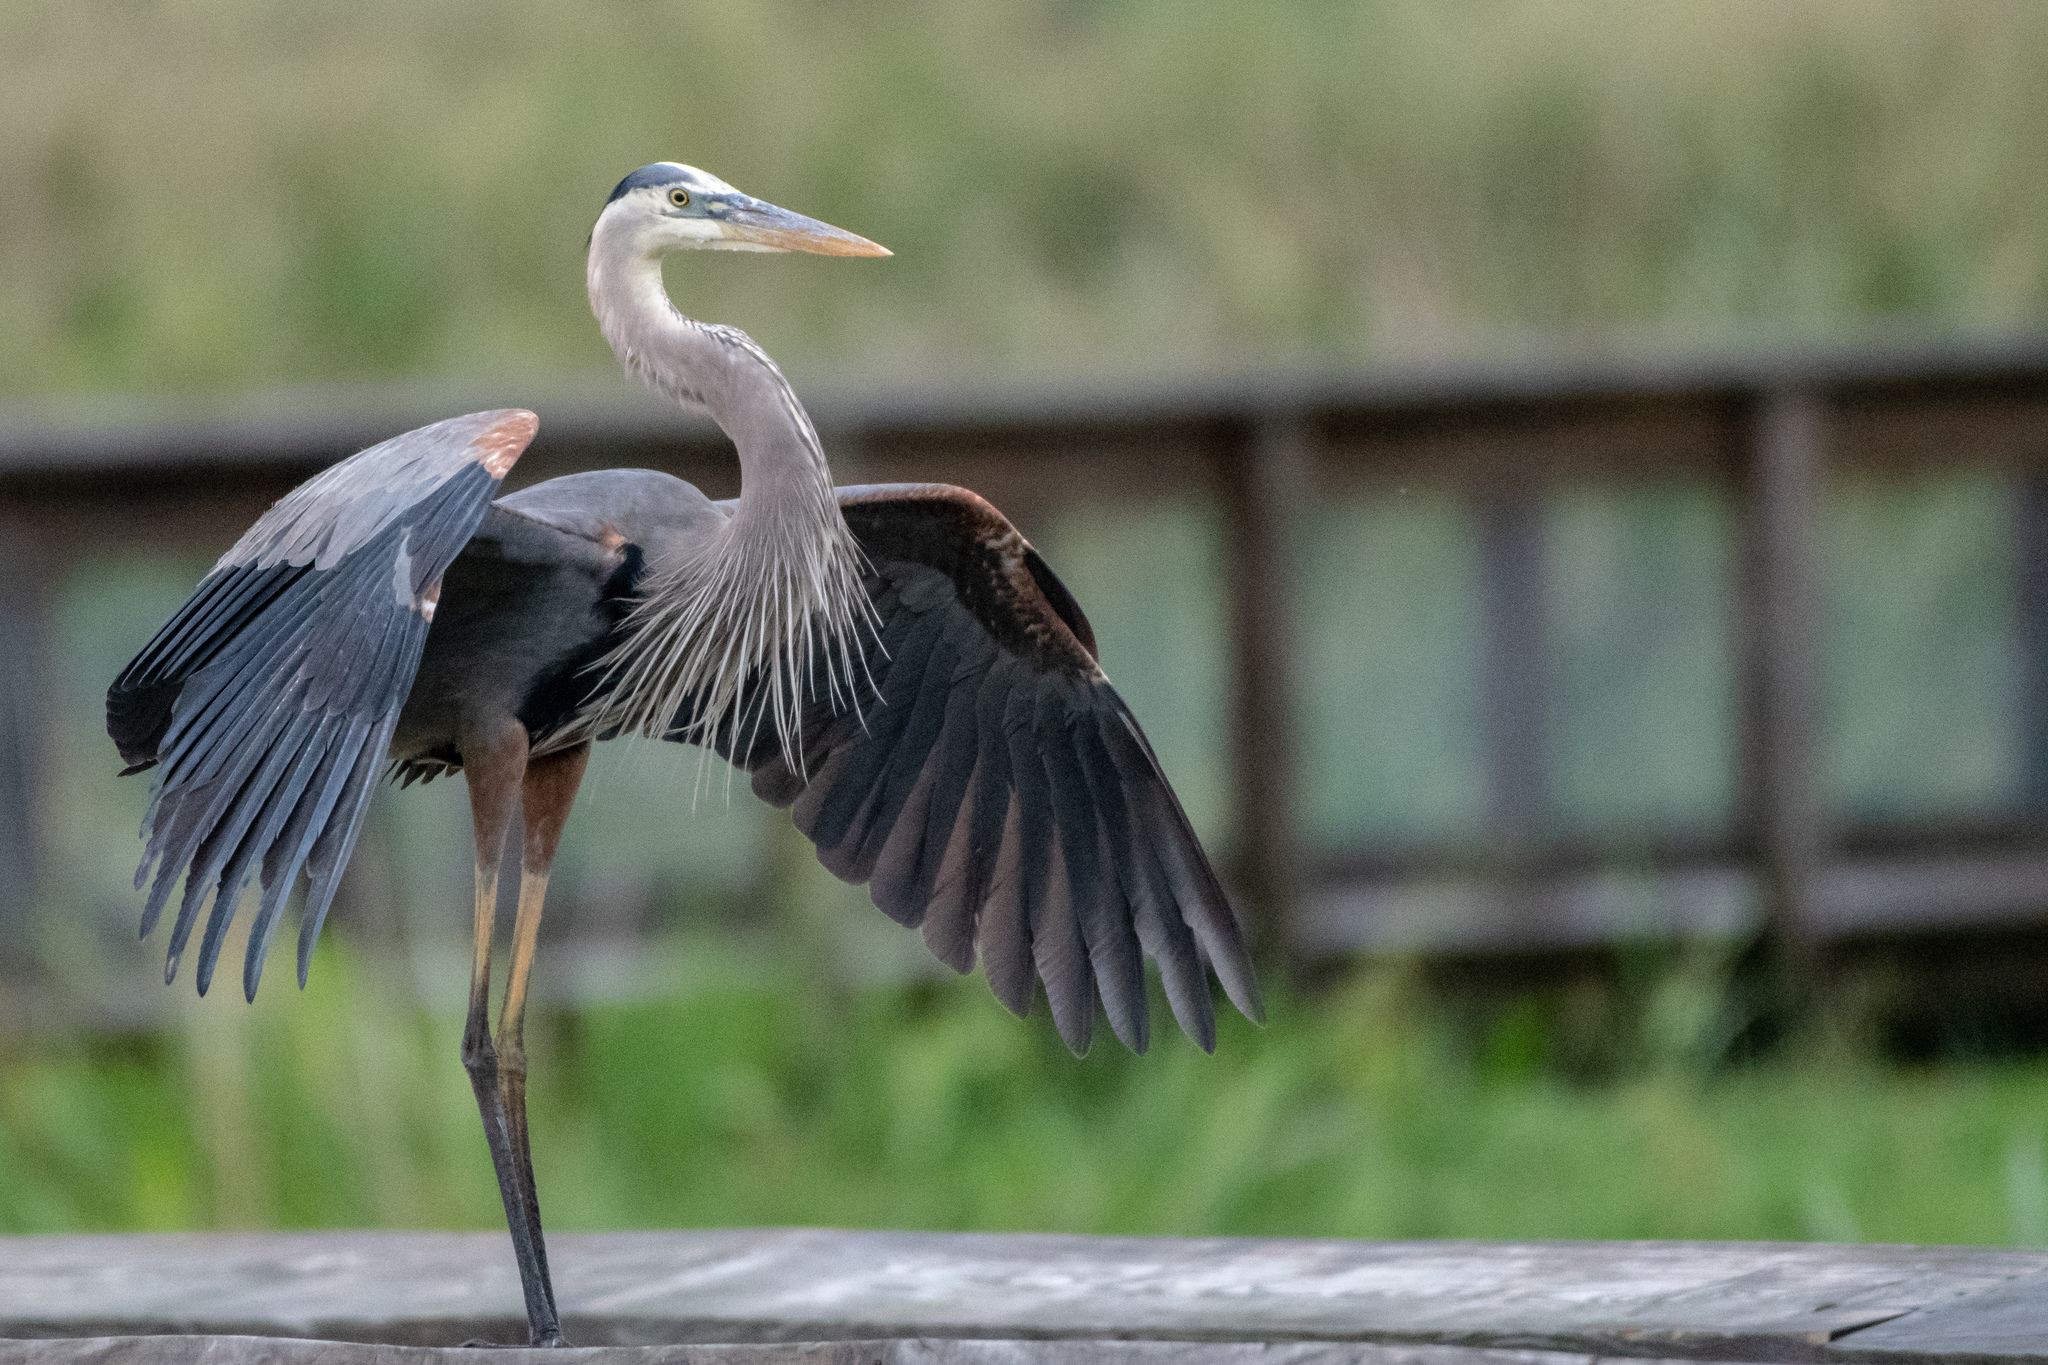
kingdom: Animalia
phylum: Chordata
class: Aves
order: Pelecaniformes
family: Ardeidae
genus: Ardea
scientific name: Ardea herodias
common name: Great blue heron
